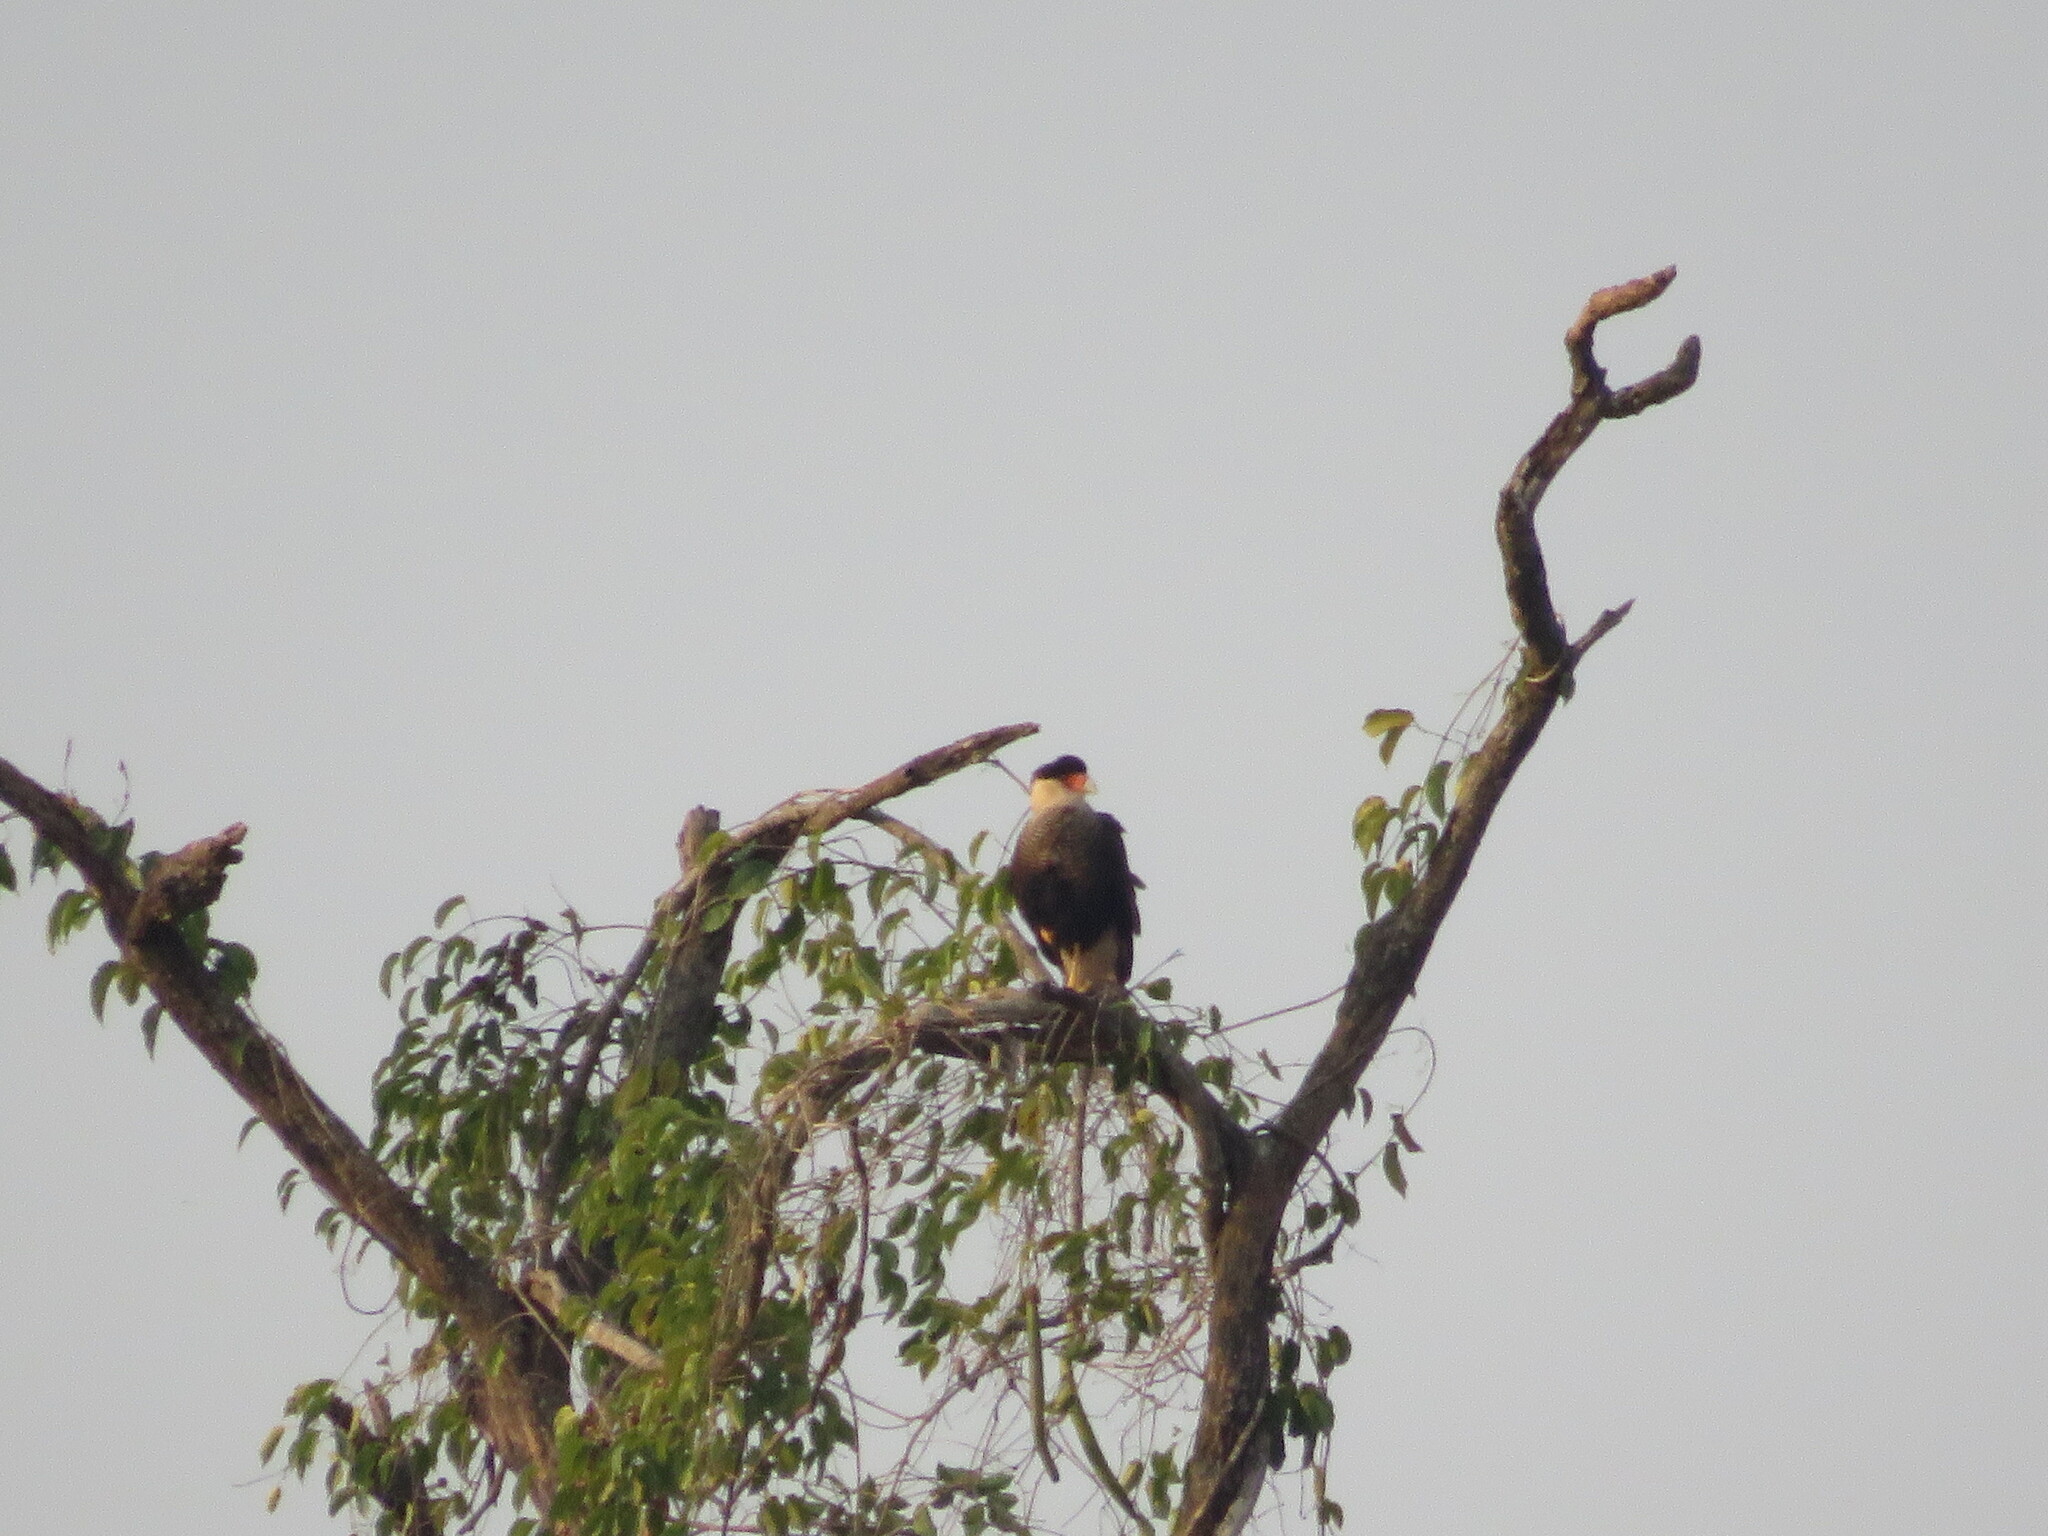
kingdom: Animalia
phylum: Chordata
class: Aves
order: Falconiformes
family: Falconidae
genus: Caracara
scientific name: Caracara plancus
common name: Southern caracara
